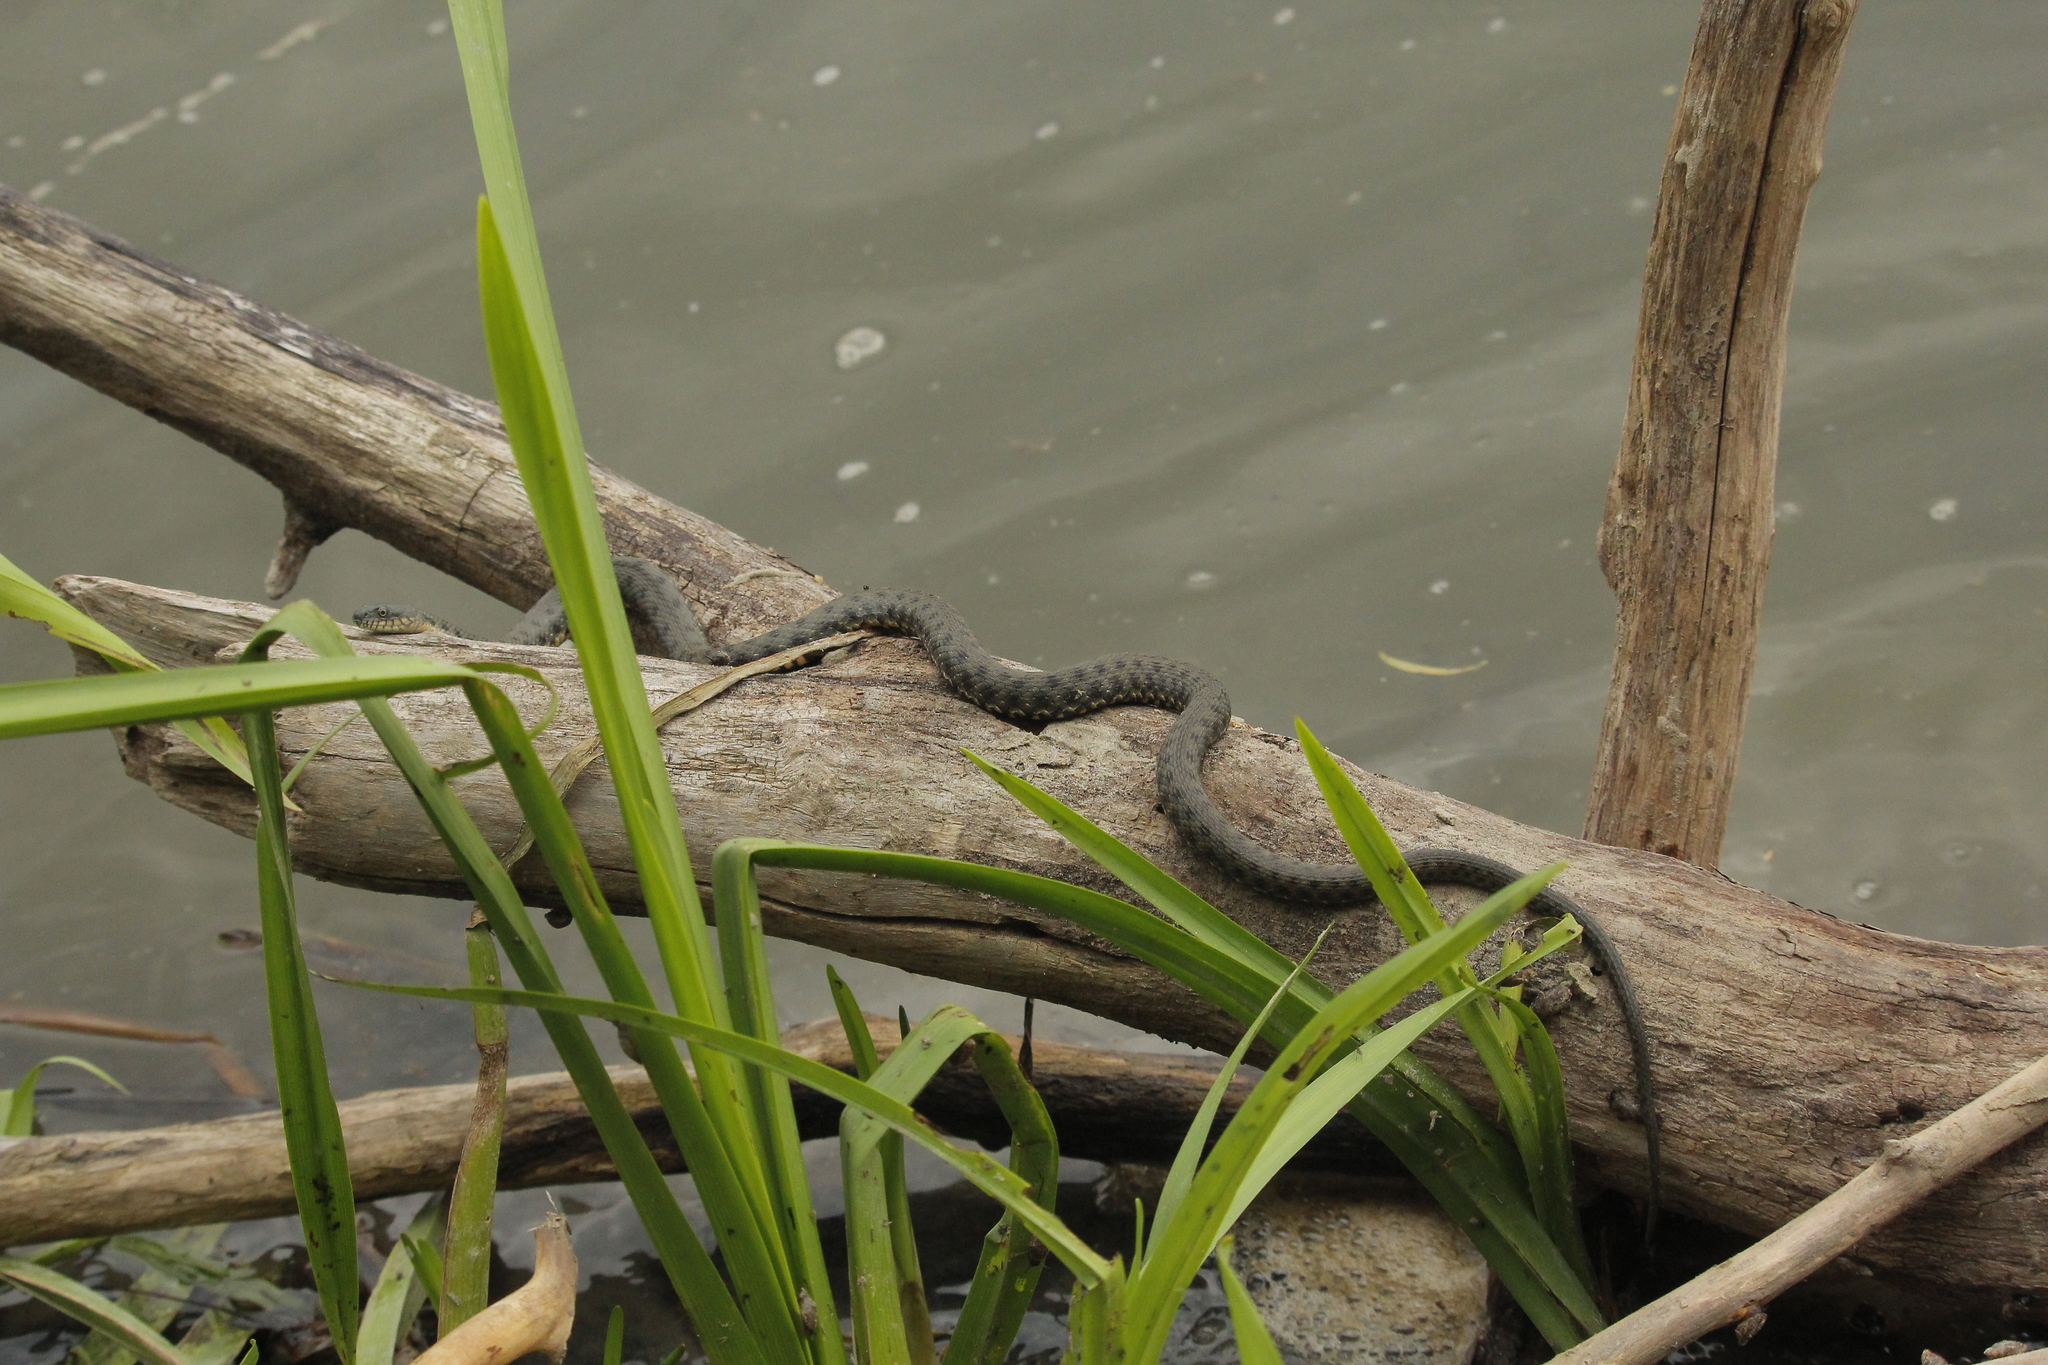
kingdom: Animalia
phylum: Chordata
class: Squamata
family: Colubridae
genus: Natrix
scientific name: Natrix tessellata
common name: Dice snake
